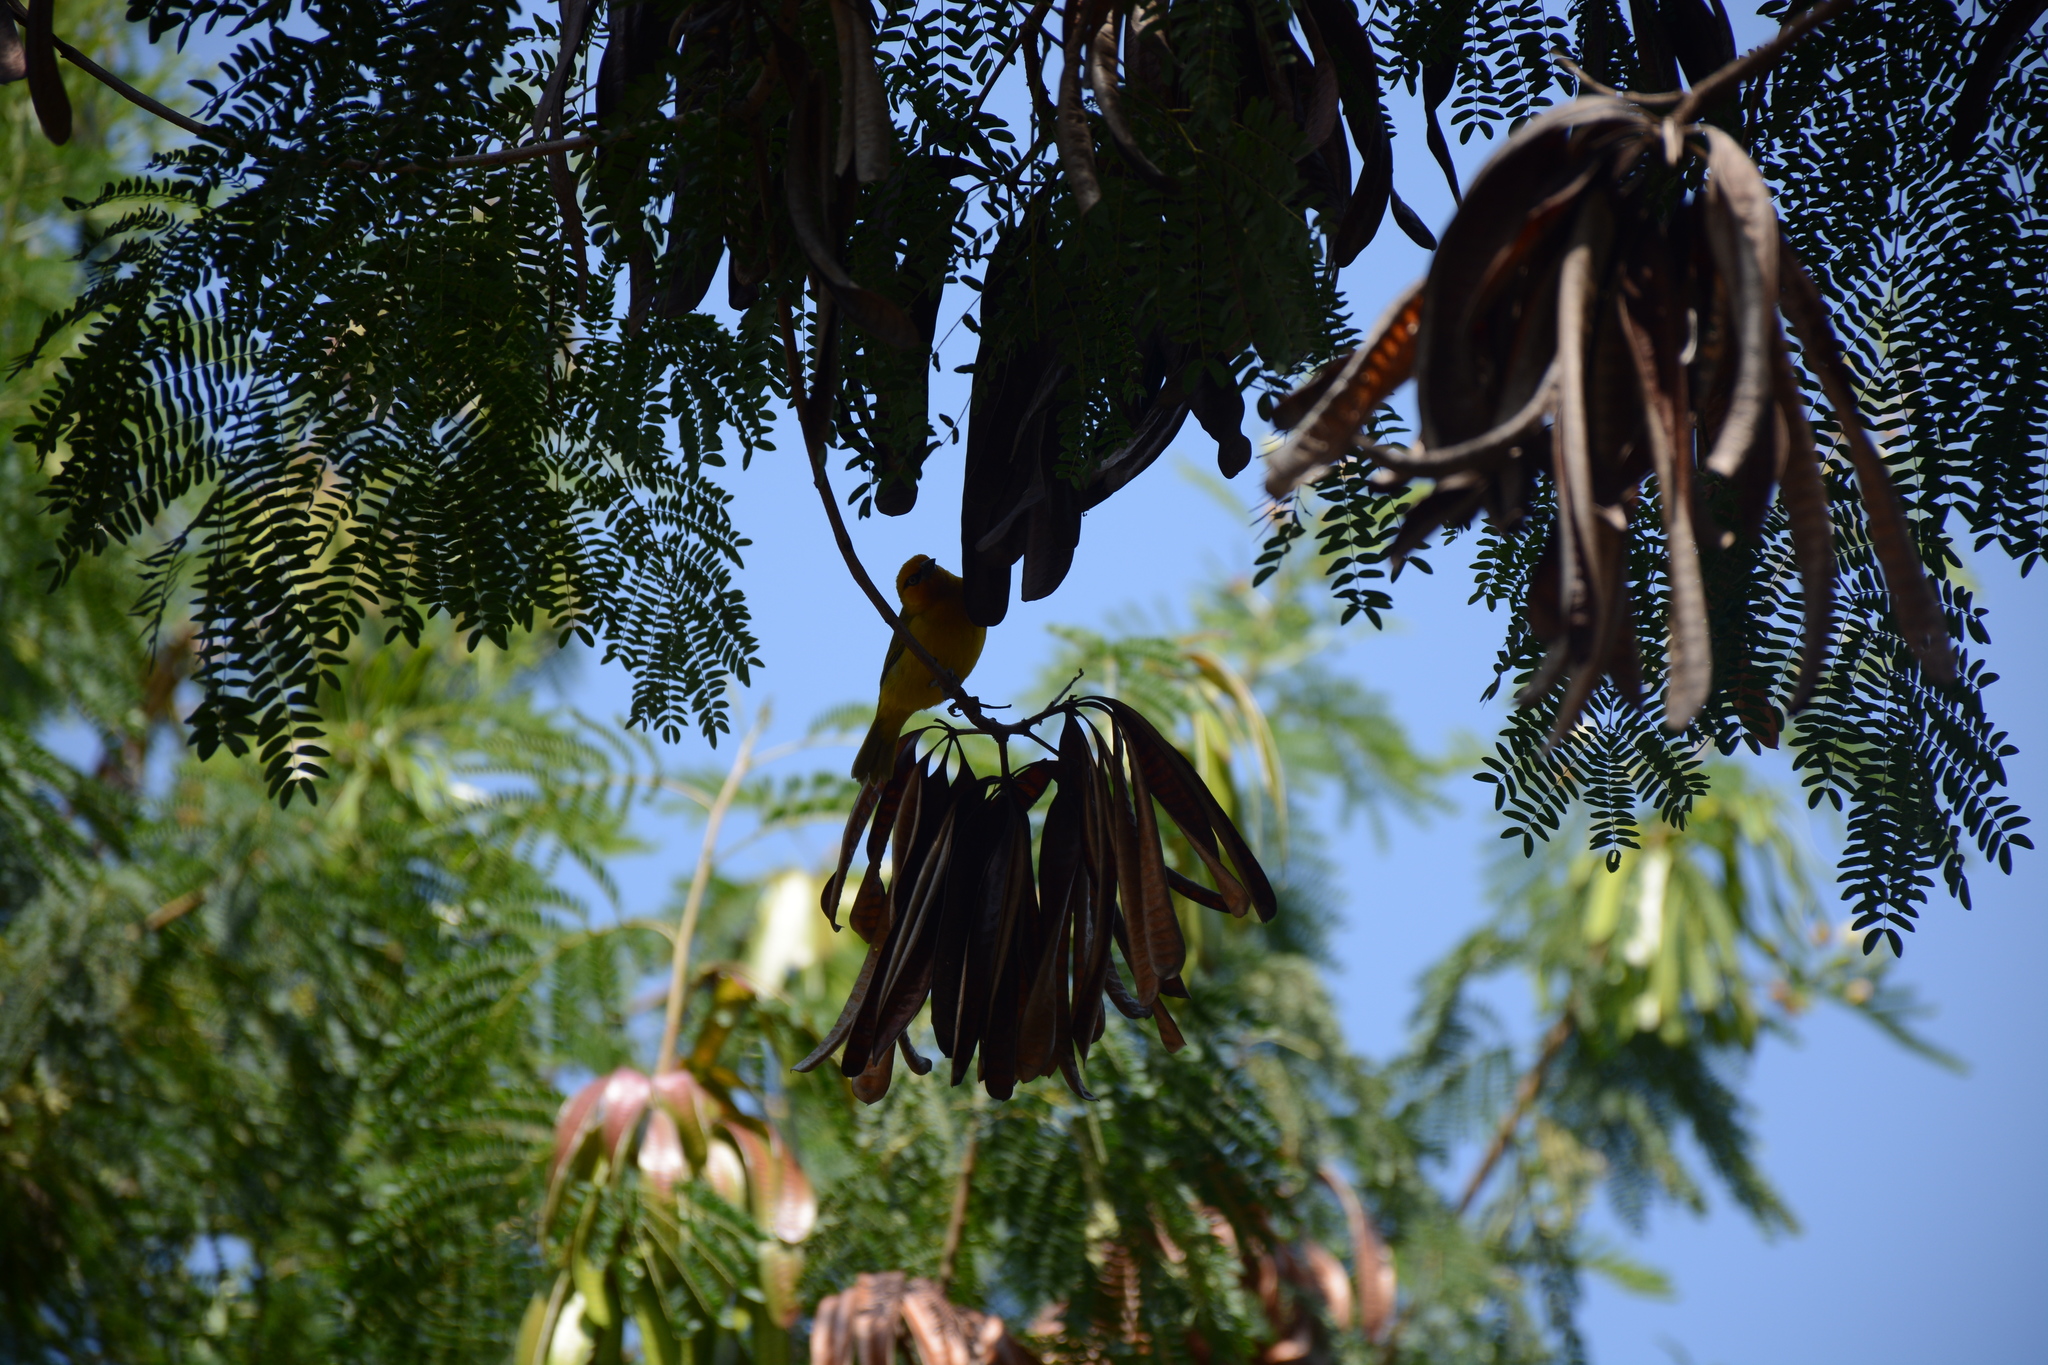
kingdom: Animalia
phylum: Chordata
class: Aves
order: Passeriformes
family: Ploceidae
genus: Ploceus
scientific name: Ploceus ocularis
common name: Spectacled weaver
